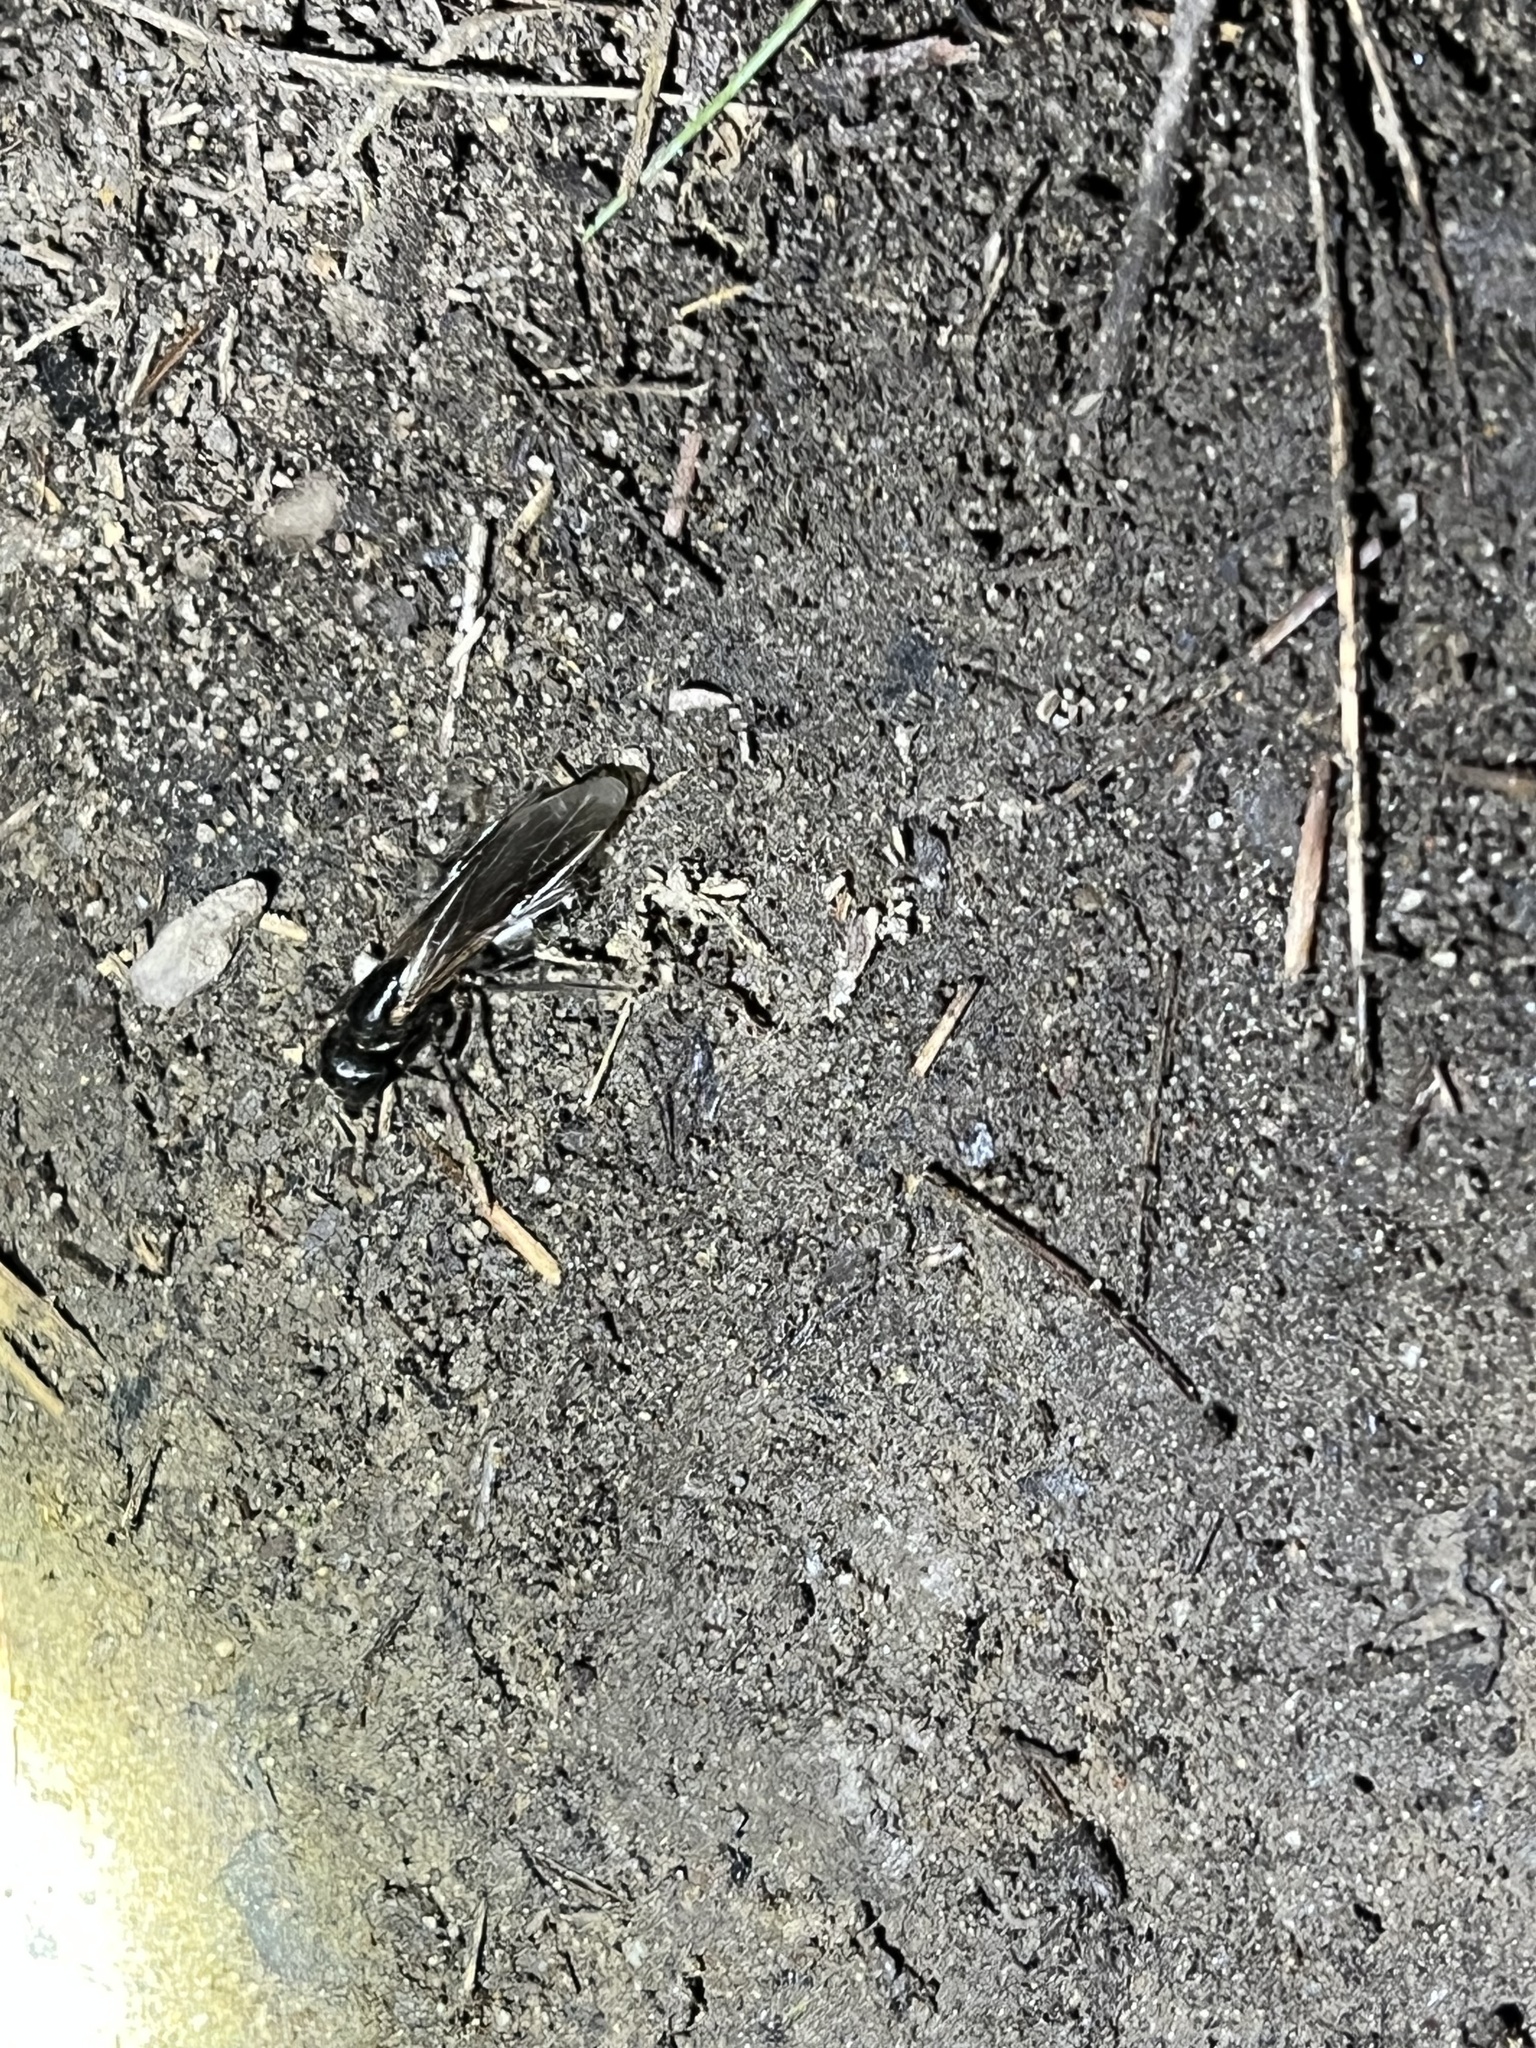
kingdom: Animalia
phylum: Arthropoda
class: Insecta
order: Hymenoptera
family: Formicidae
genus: Camponotus
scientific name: Camponotus pennsylvanicus
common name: Black carpenter ant
